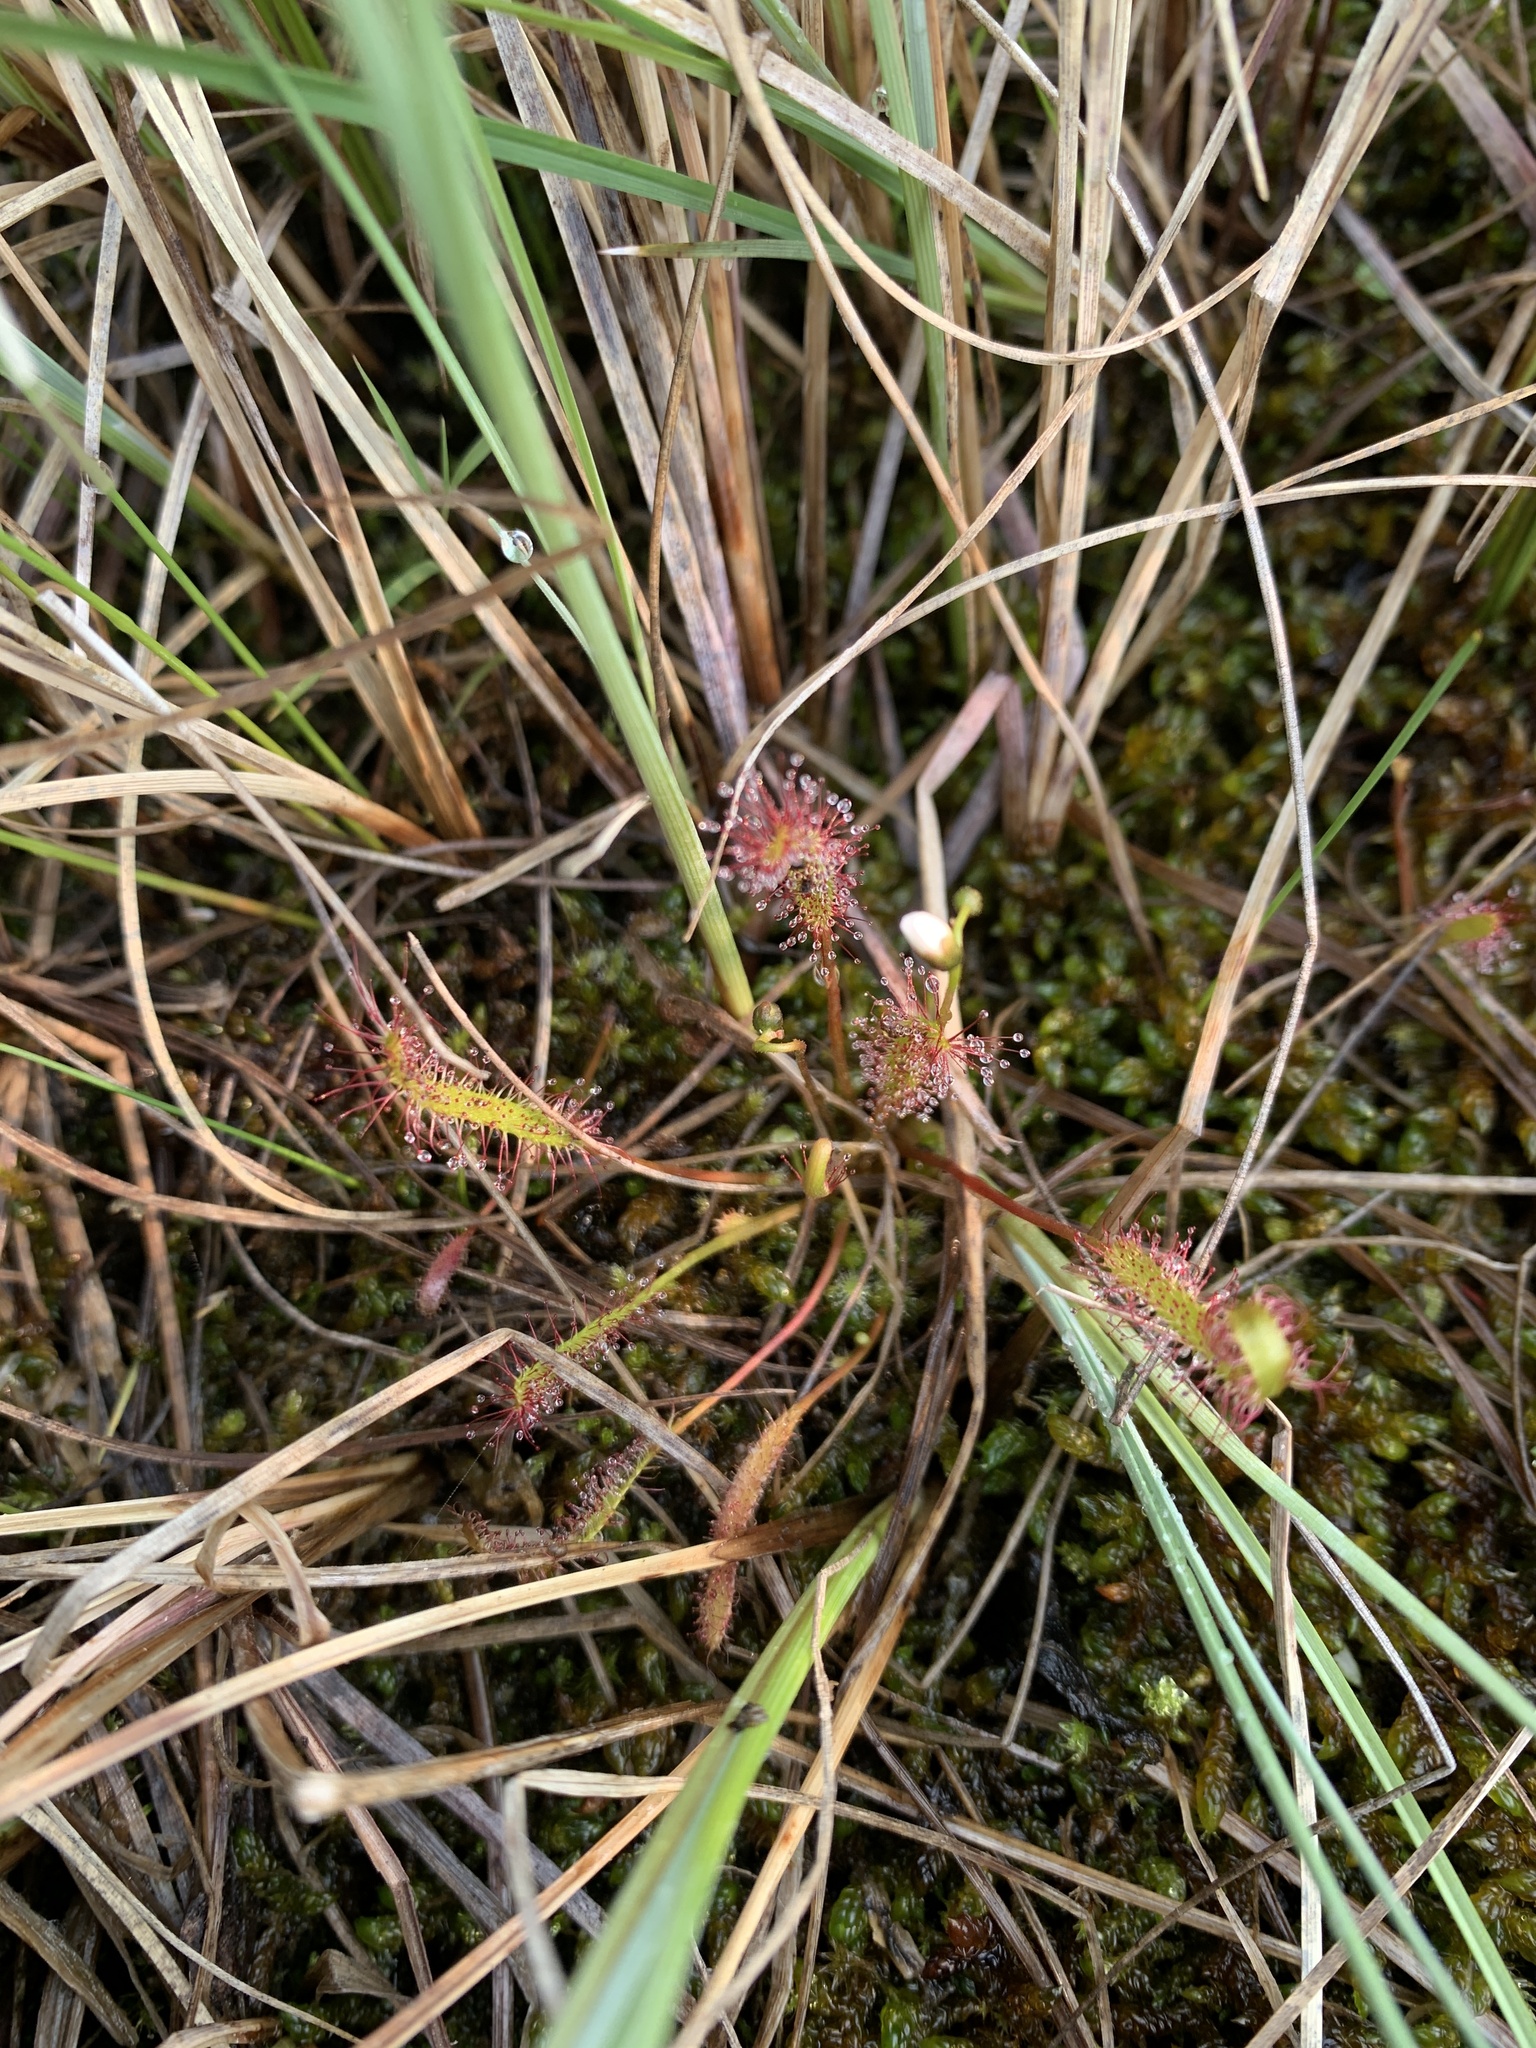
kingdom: Plantae
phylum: Tracheophyta
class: Magnoliopsida
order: Caryophyllales
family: Droseraceae
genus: Drosera
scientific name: Drosera linearis
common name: Linear-leaved sundew
